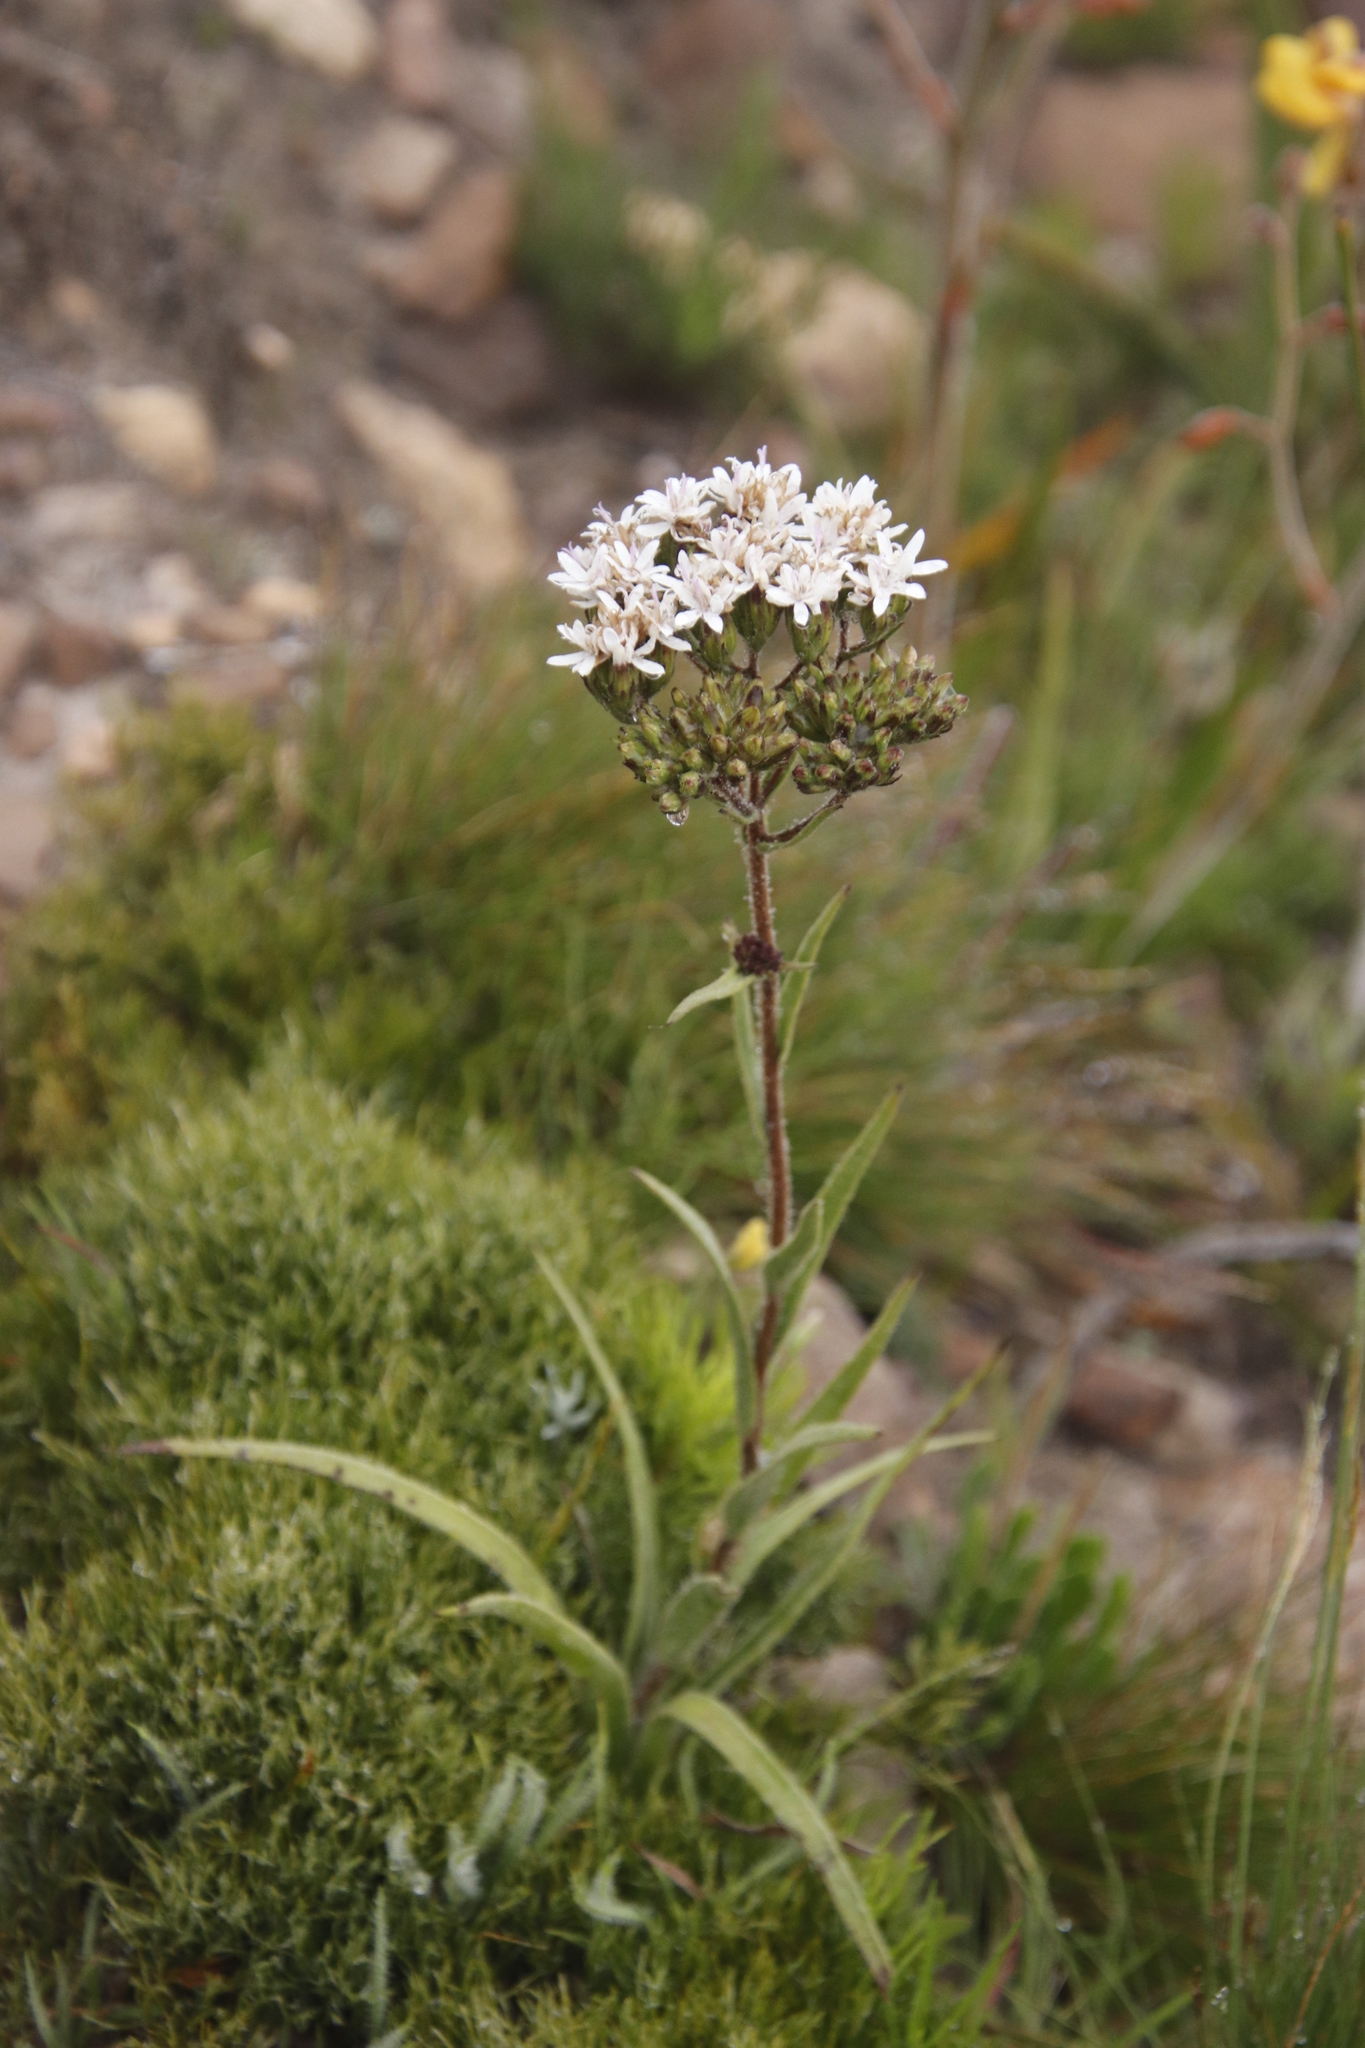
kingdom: Plantae
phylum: Tracheophyta
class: Magnoliopsida
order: Asterales
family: Asteraceae
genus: Corymbium
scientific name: Corymbium villosum
